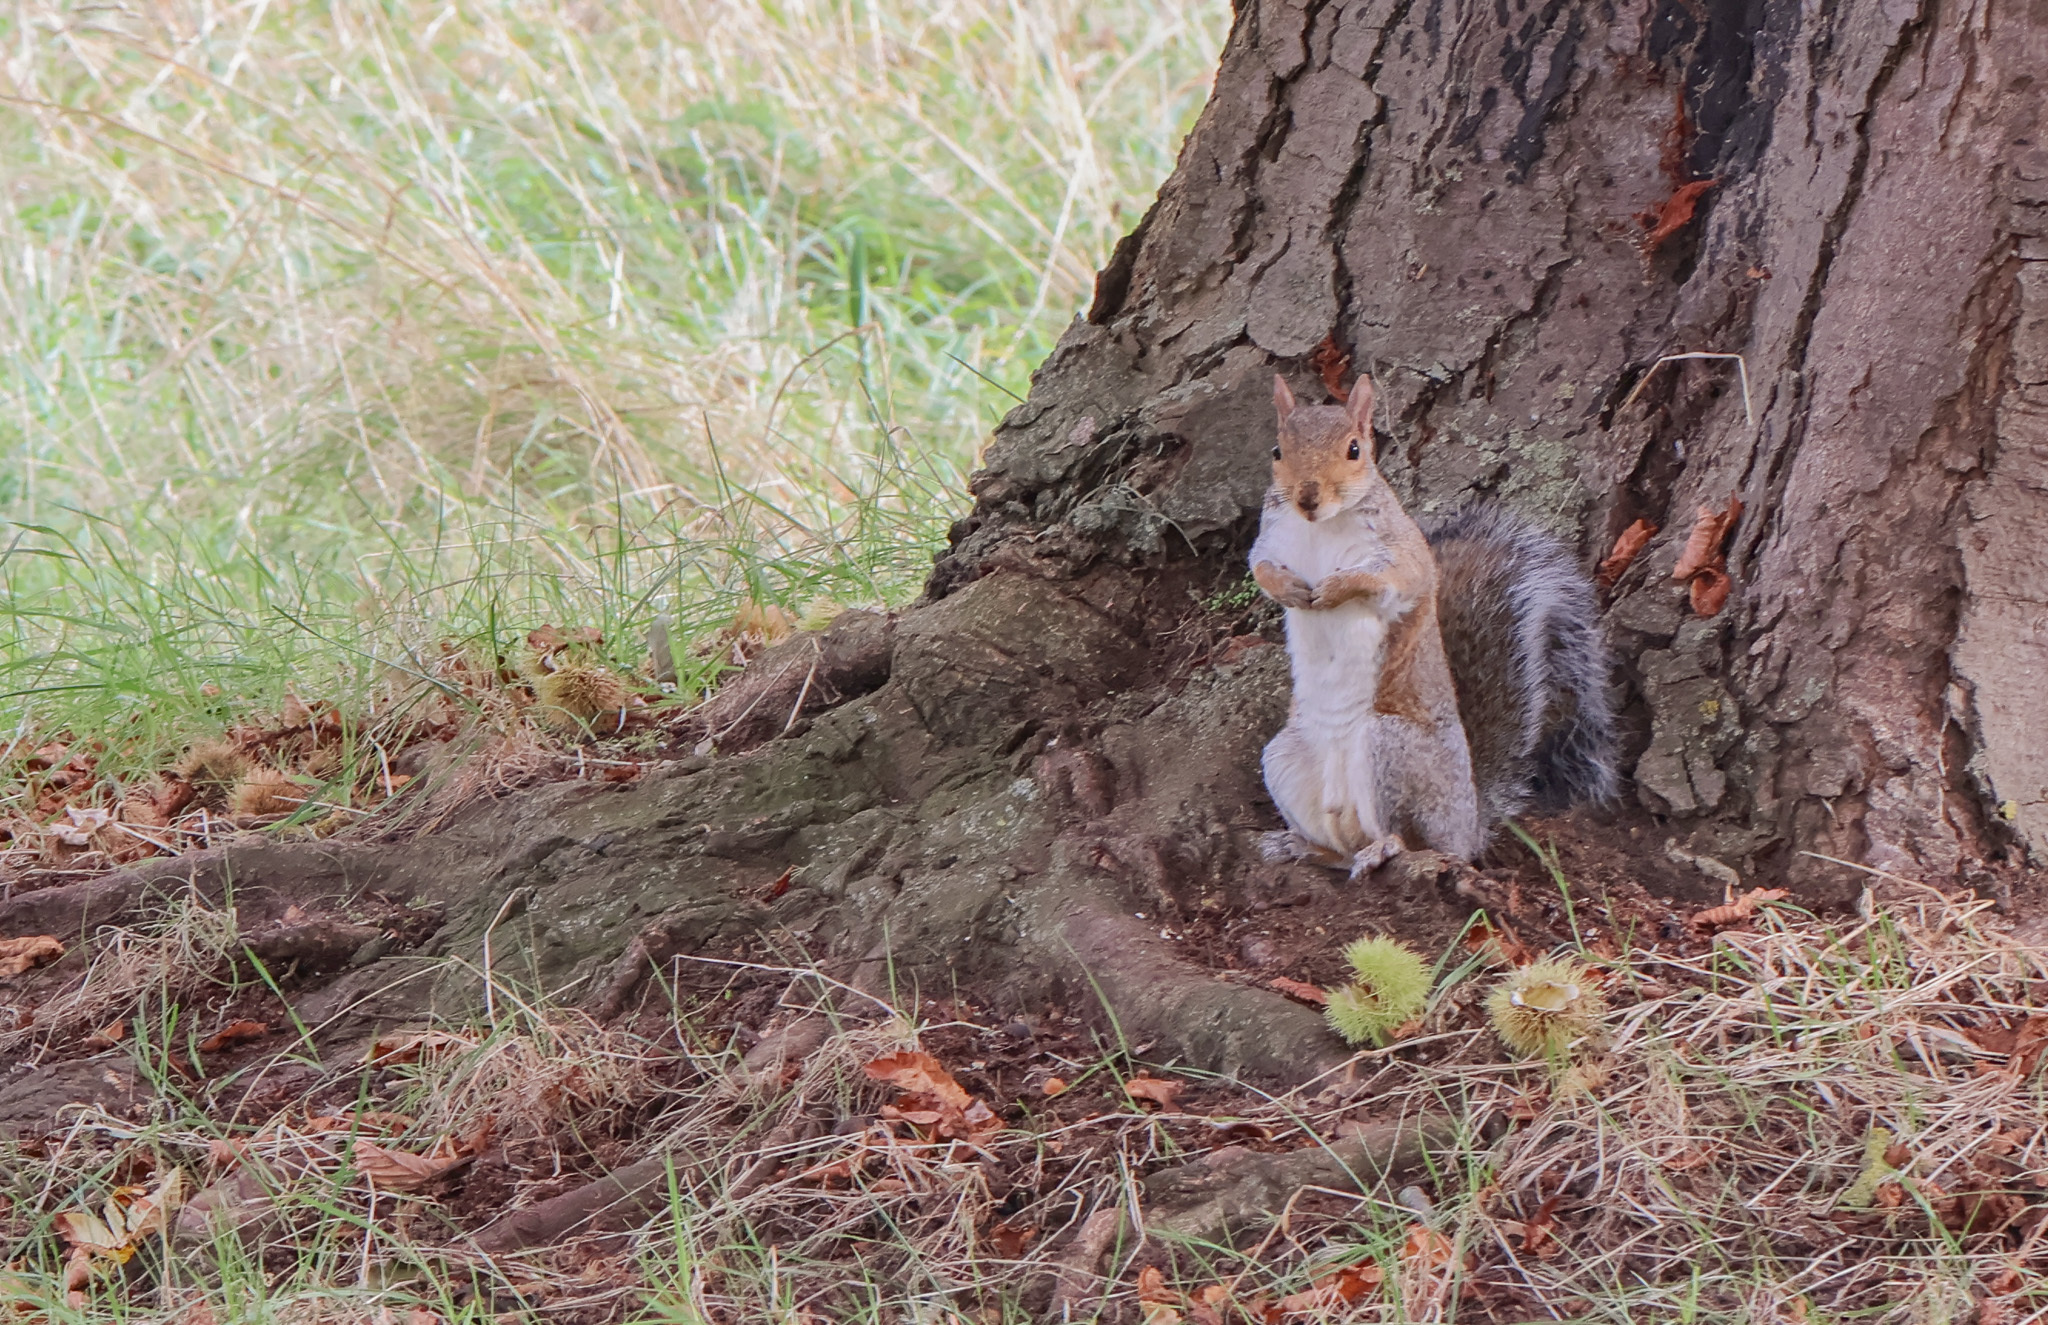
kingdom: Animalia
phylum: Chordata
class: Mammalia
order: Rodentia
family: Sciuridae
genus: Sciurus
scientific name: Sciurus carolinensis
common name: Eastern gray squirrel
